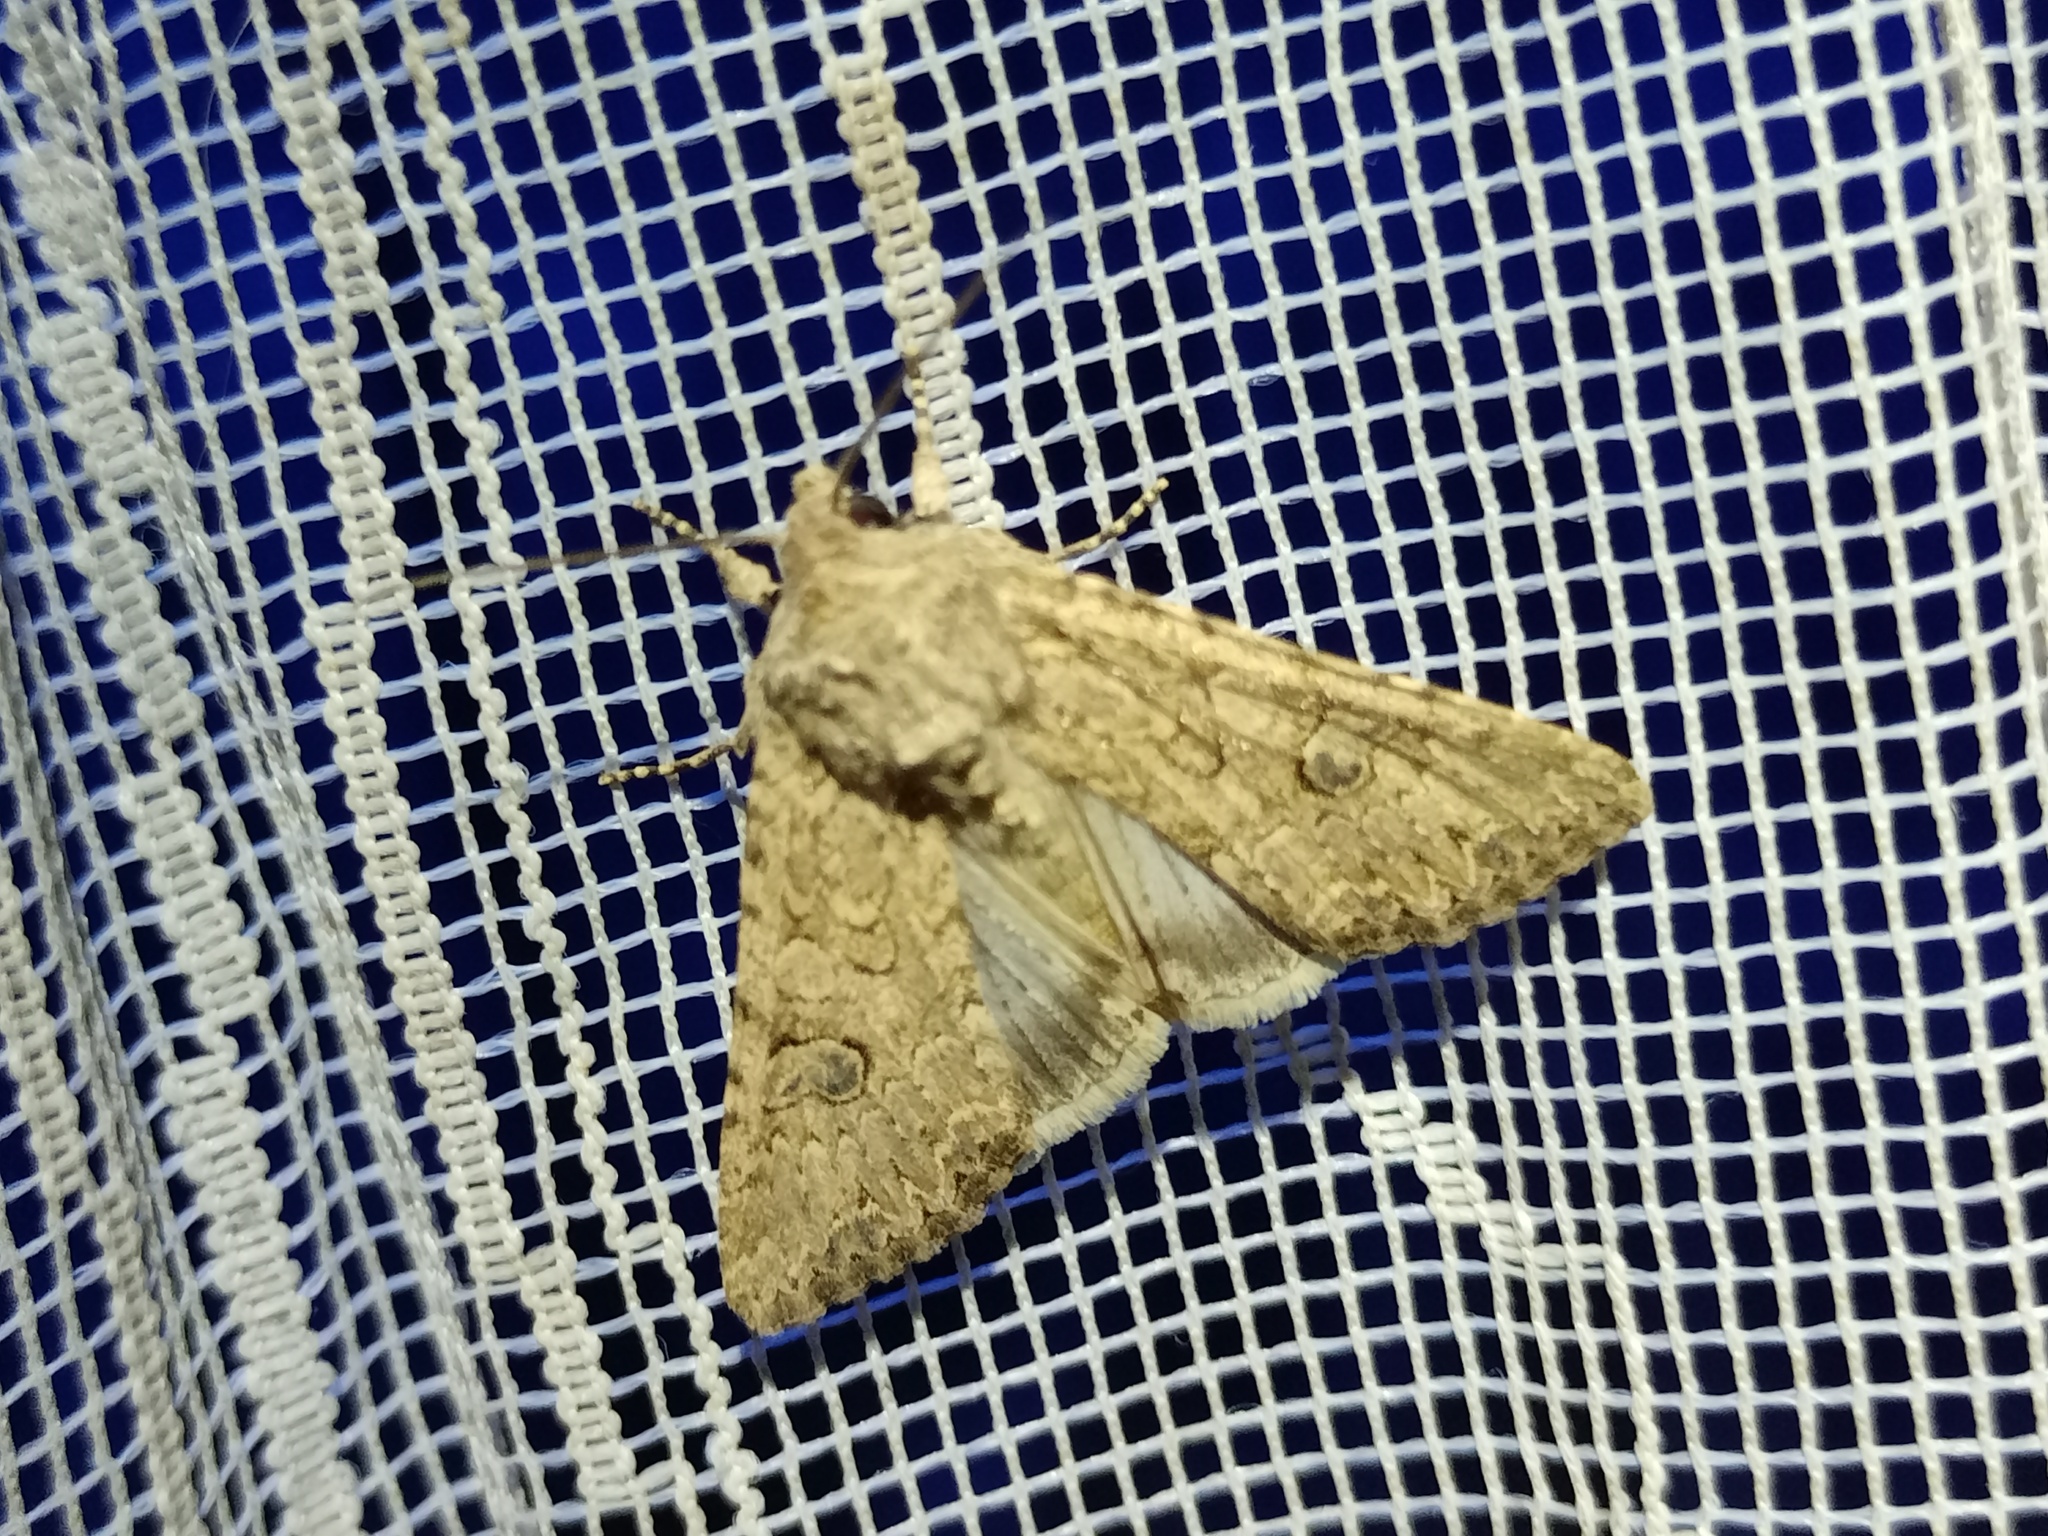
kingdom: Animalia
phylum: Arthropoda
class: Insecta
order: Lepidoptera
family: Noctuidae
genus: Anarta
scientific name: Anarta trifolii
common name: Clover cutworm moth
